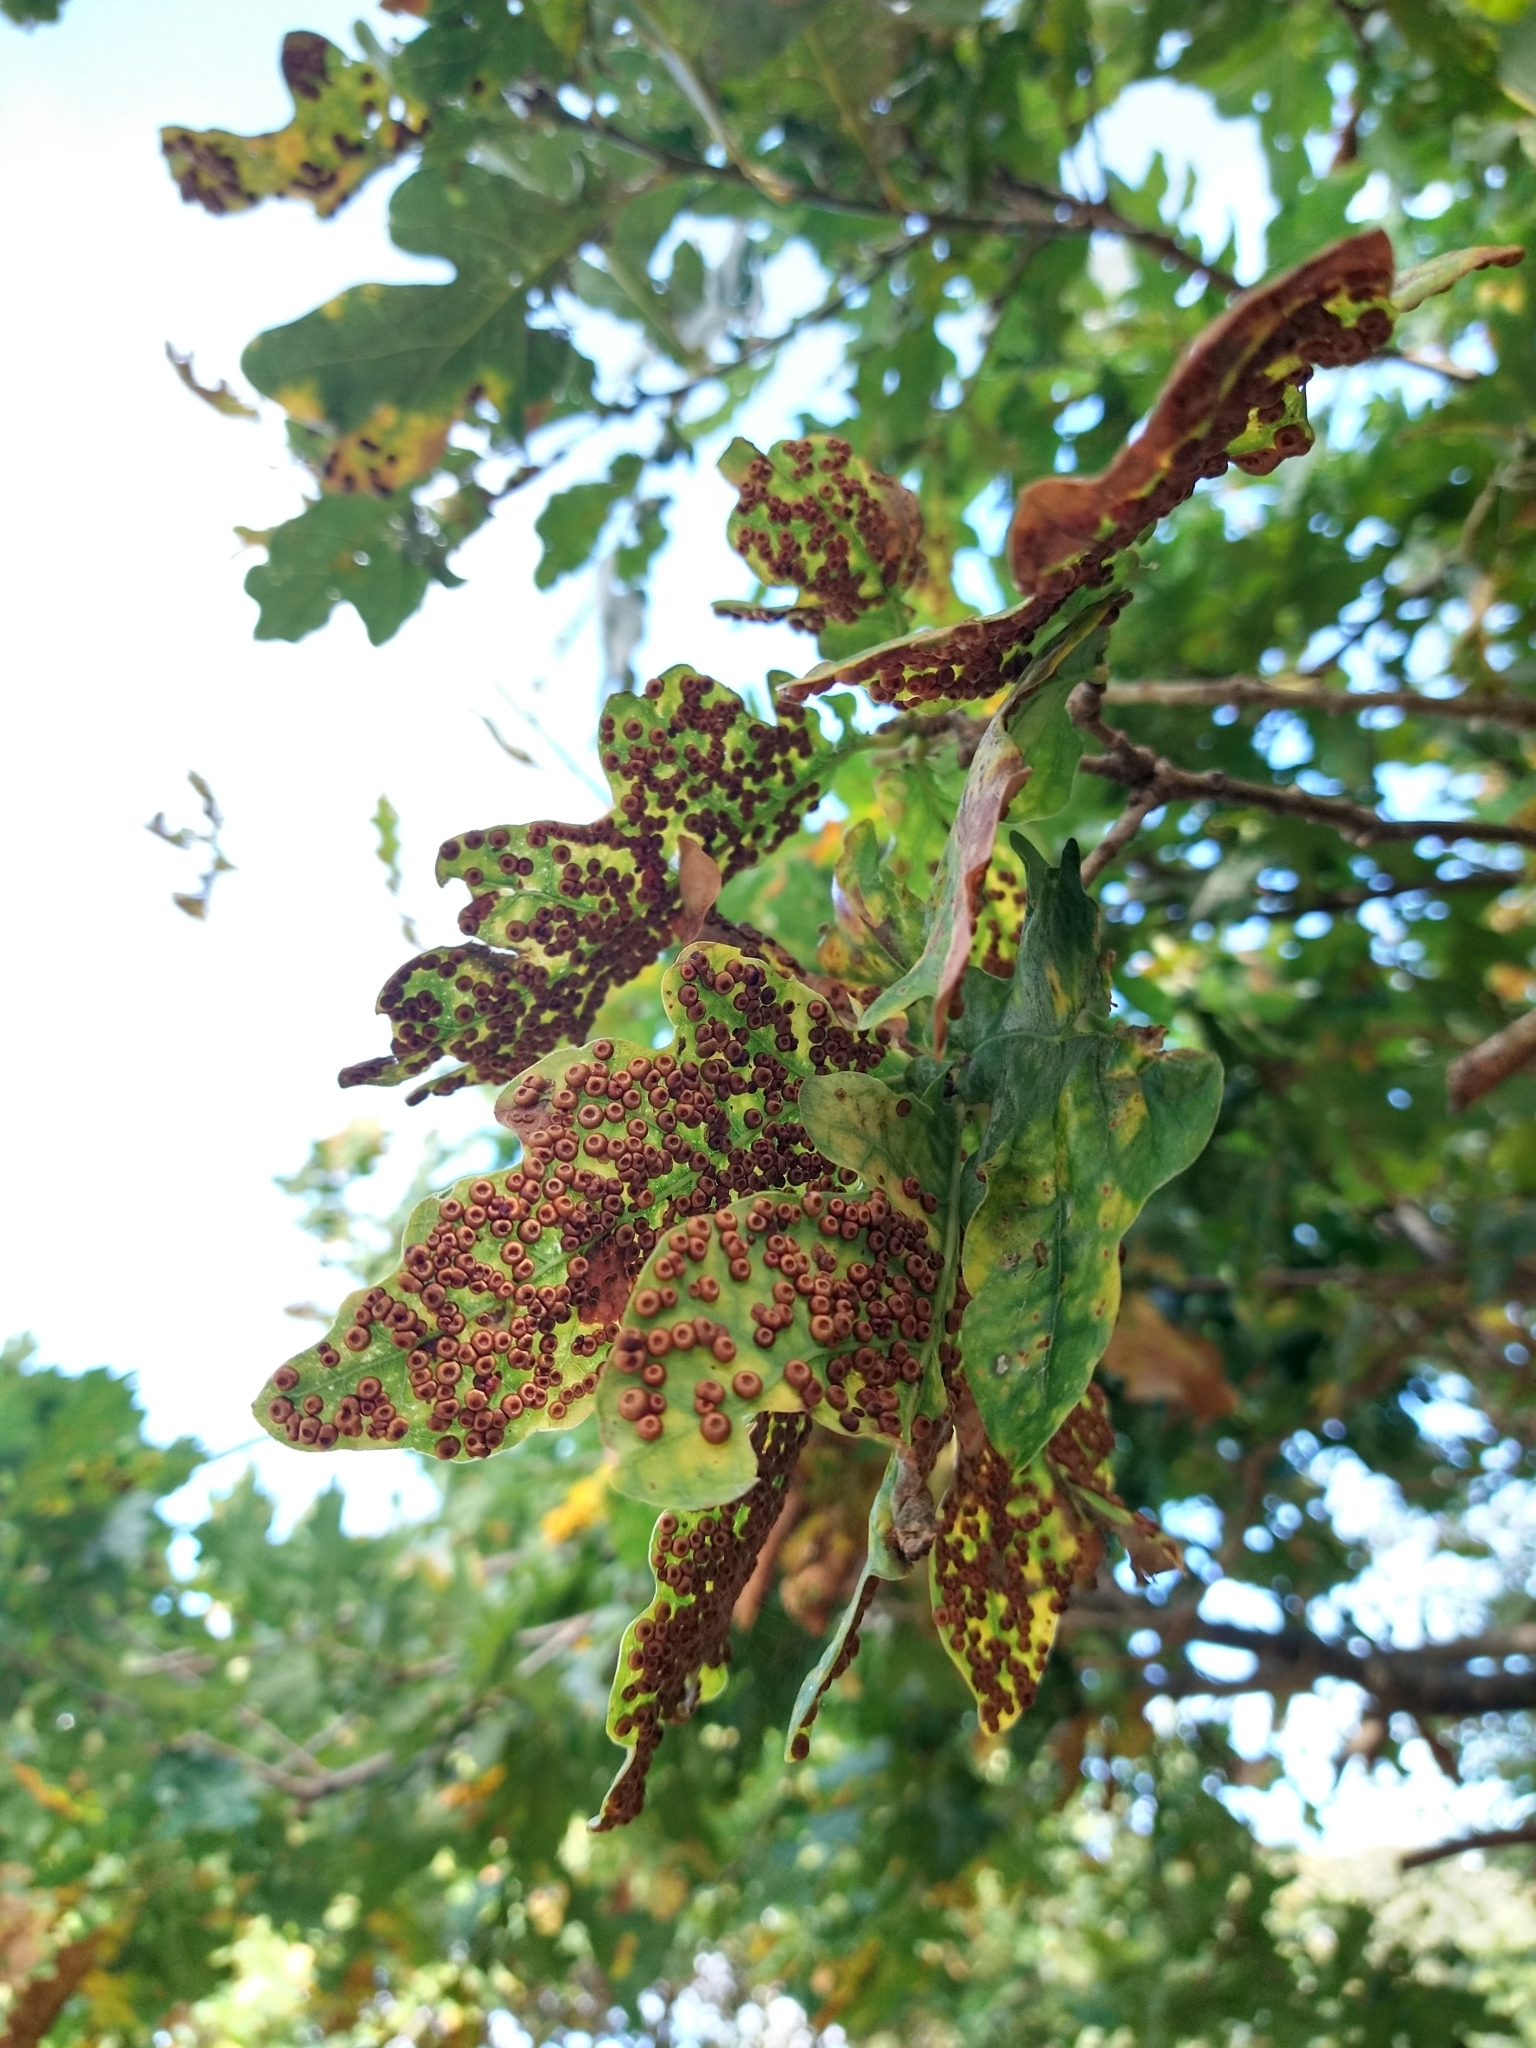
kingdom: Animalia
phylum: Arthropoda
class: Insecta
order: Hymenoptera
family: Cynipidae
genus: Neuroterus
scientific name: Neuroterus numismalis
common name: Silk-button spangle gall
